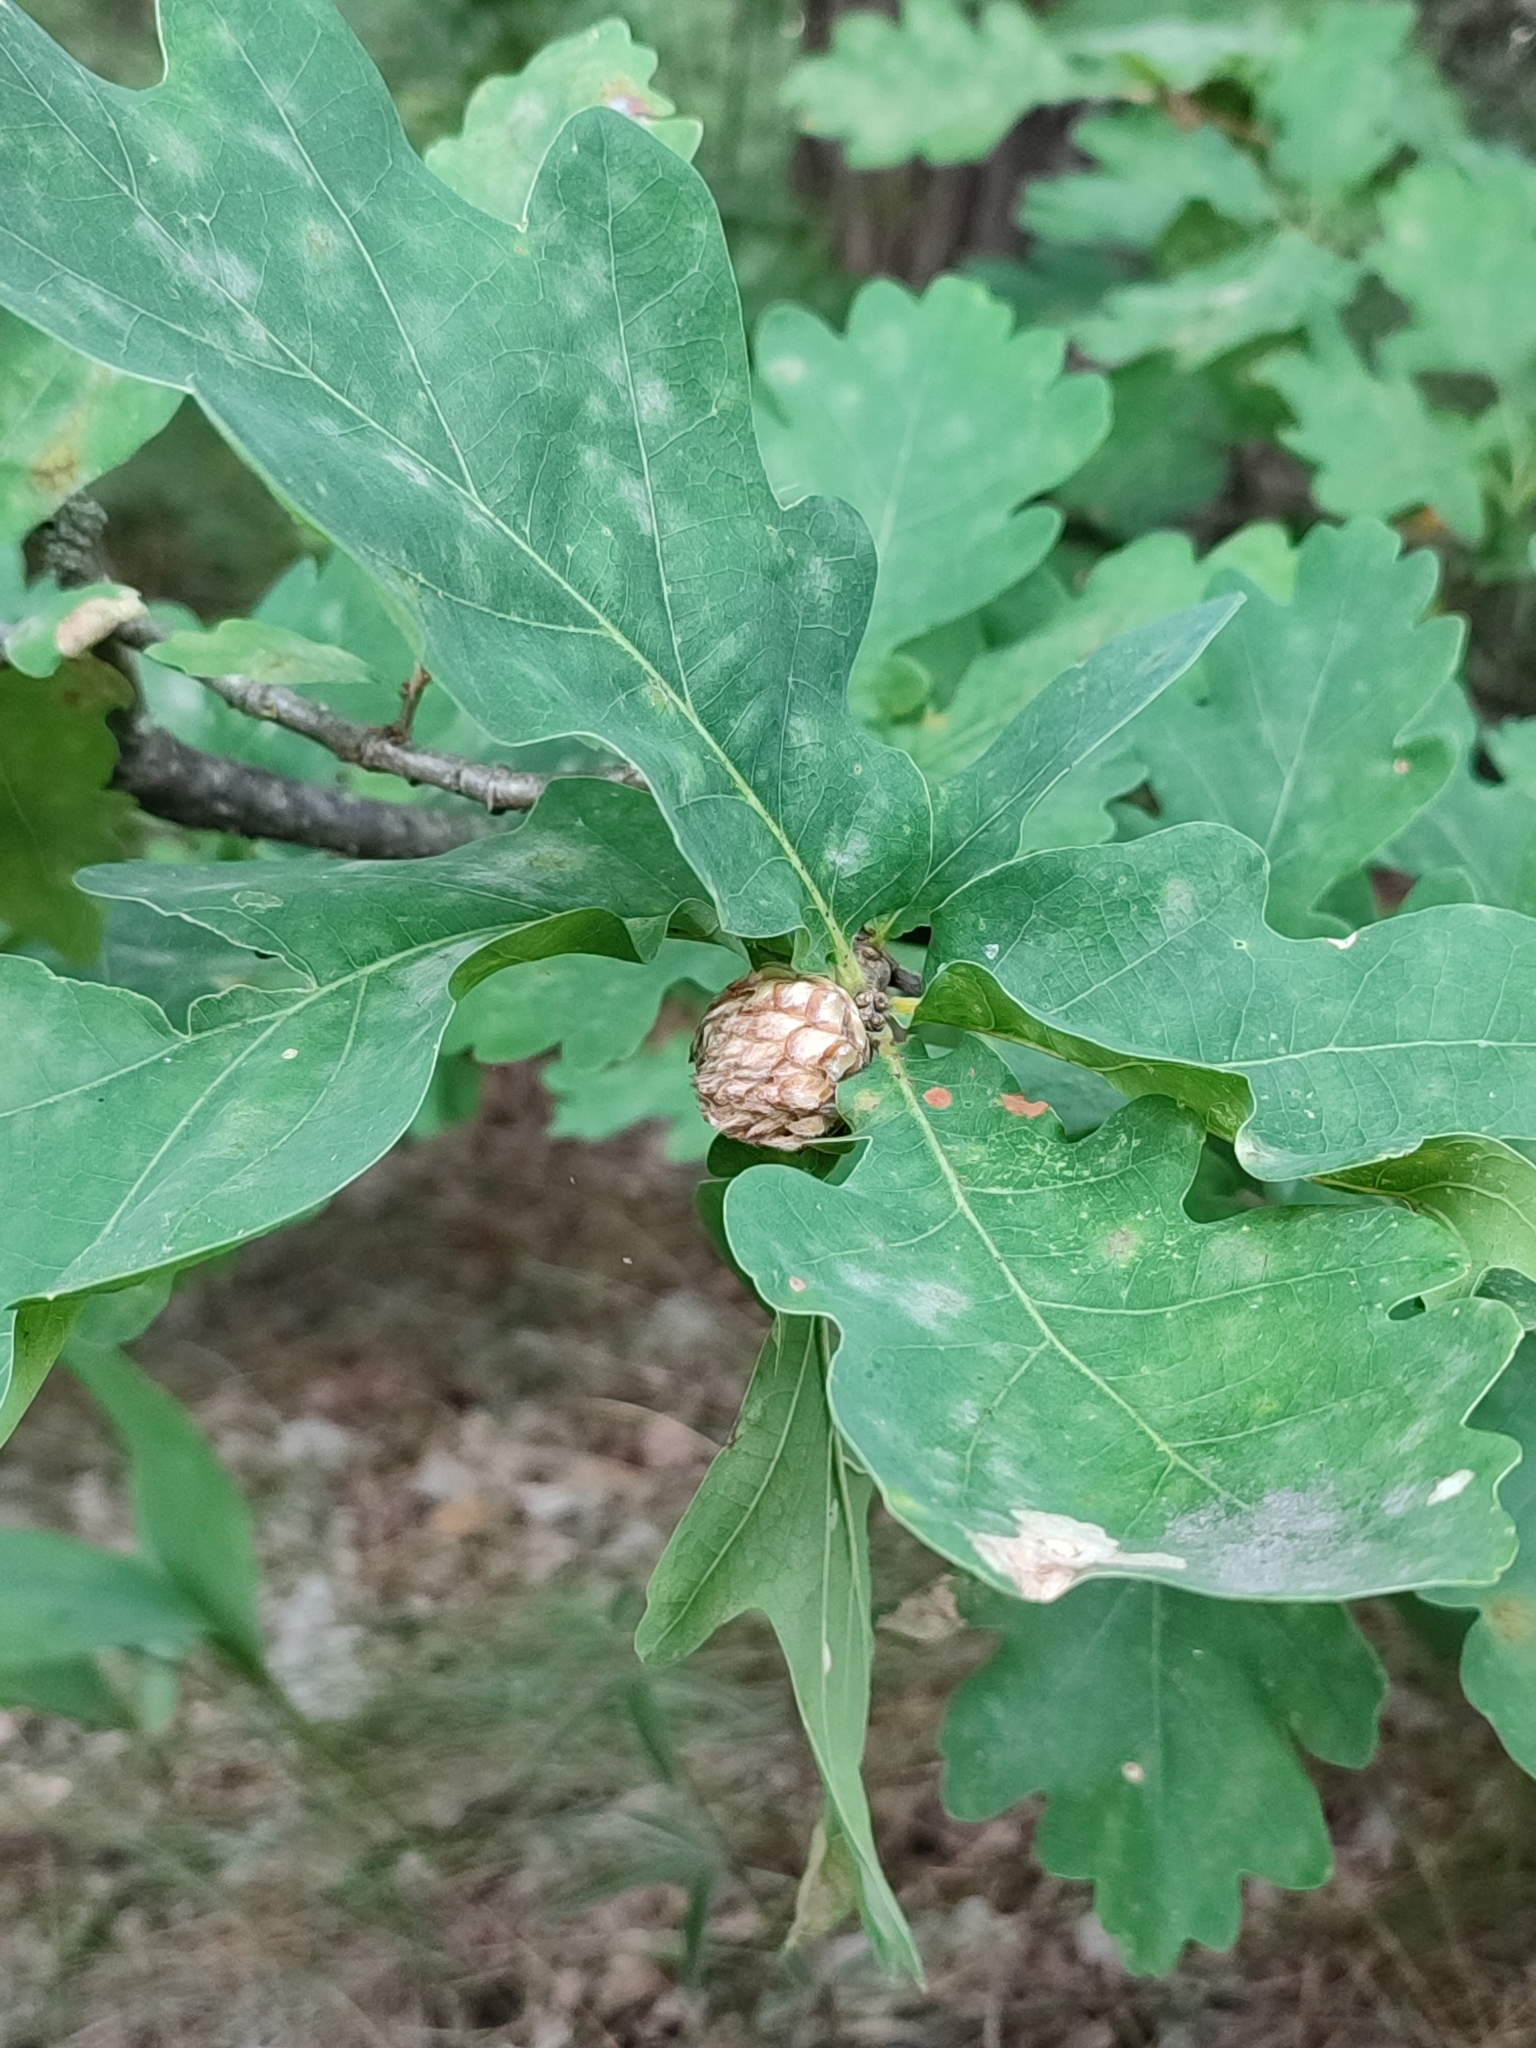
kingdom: Animalia
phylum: Arthropoda
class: Insecta
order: Hymenoptera
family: Cynipidae
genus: Andricus
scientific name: Andricus foecundatrix
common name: Artichoke gall
